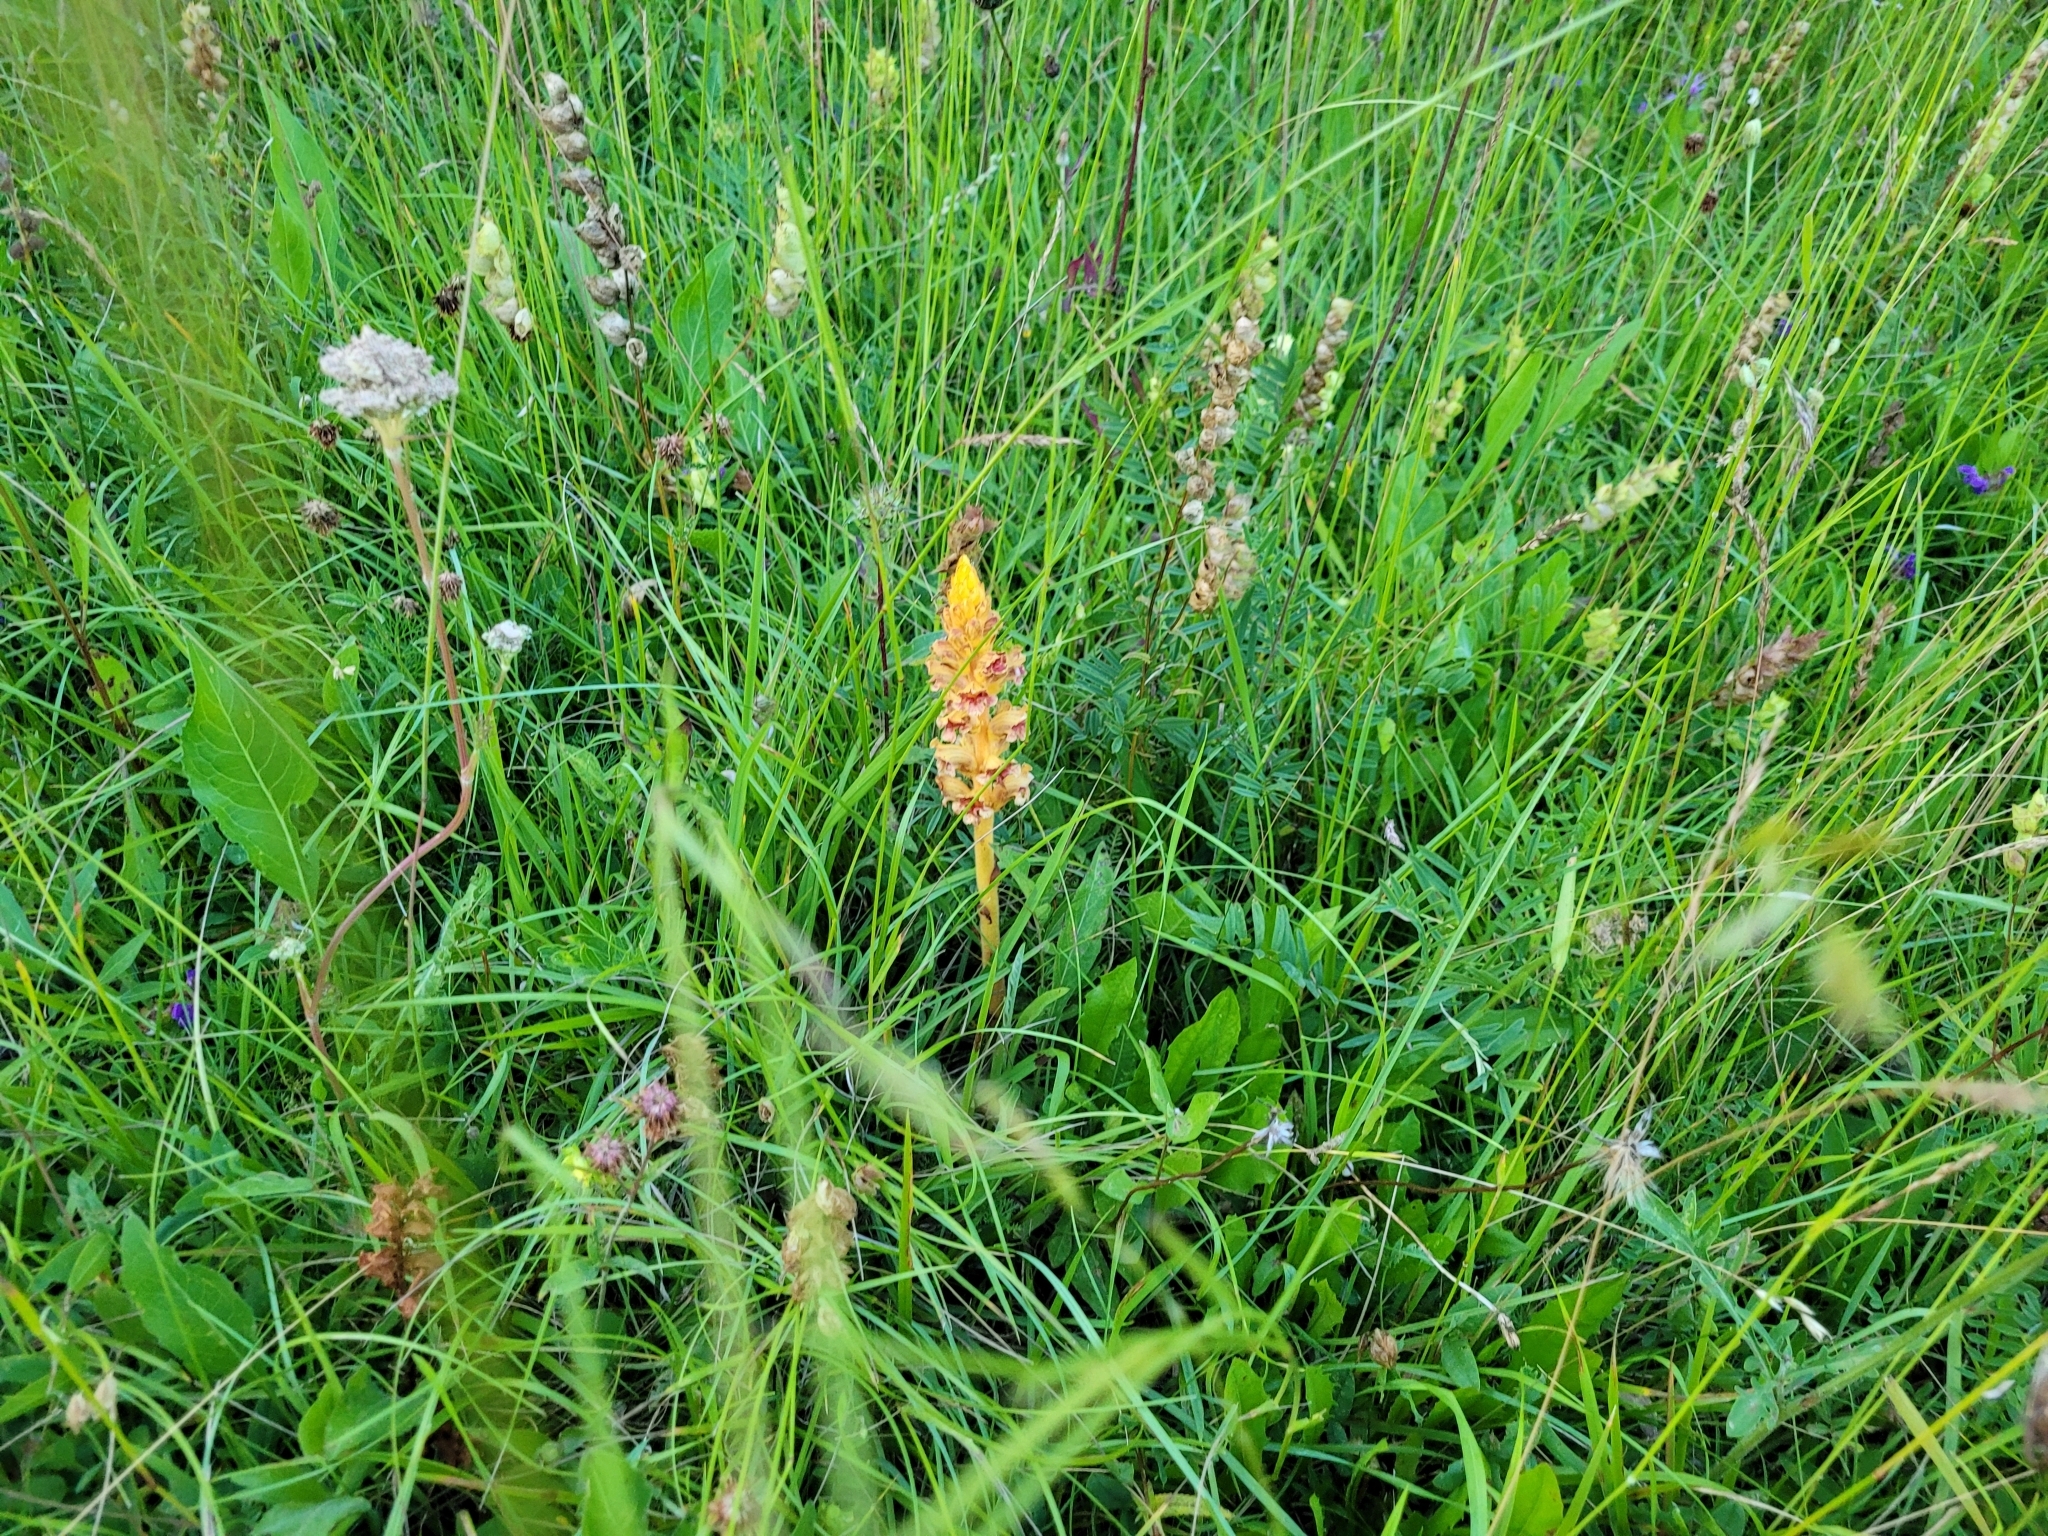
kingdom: Plantae
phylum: Tracheophyta
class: Magnoliopsida
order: Lamiales
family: Orobanchaceae
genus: Orobanche
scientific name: Orobanche gracilis
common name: Slender broomrape
